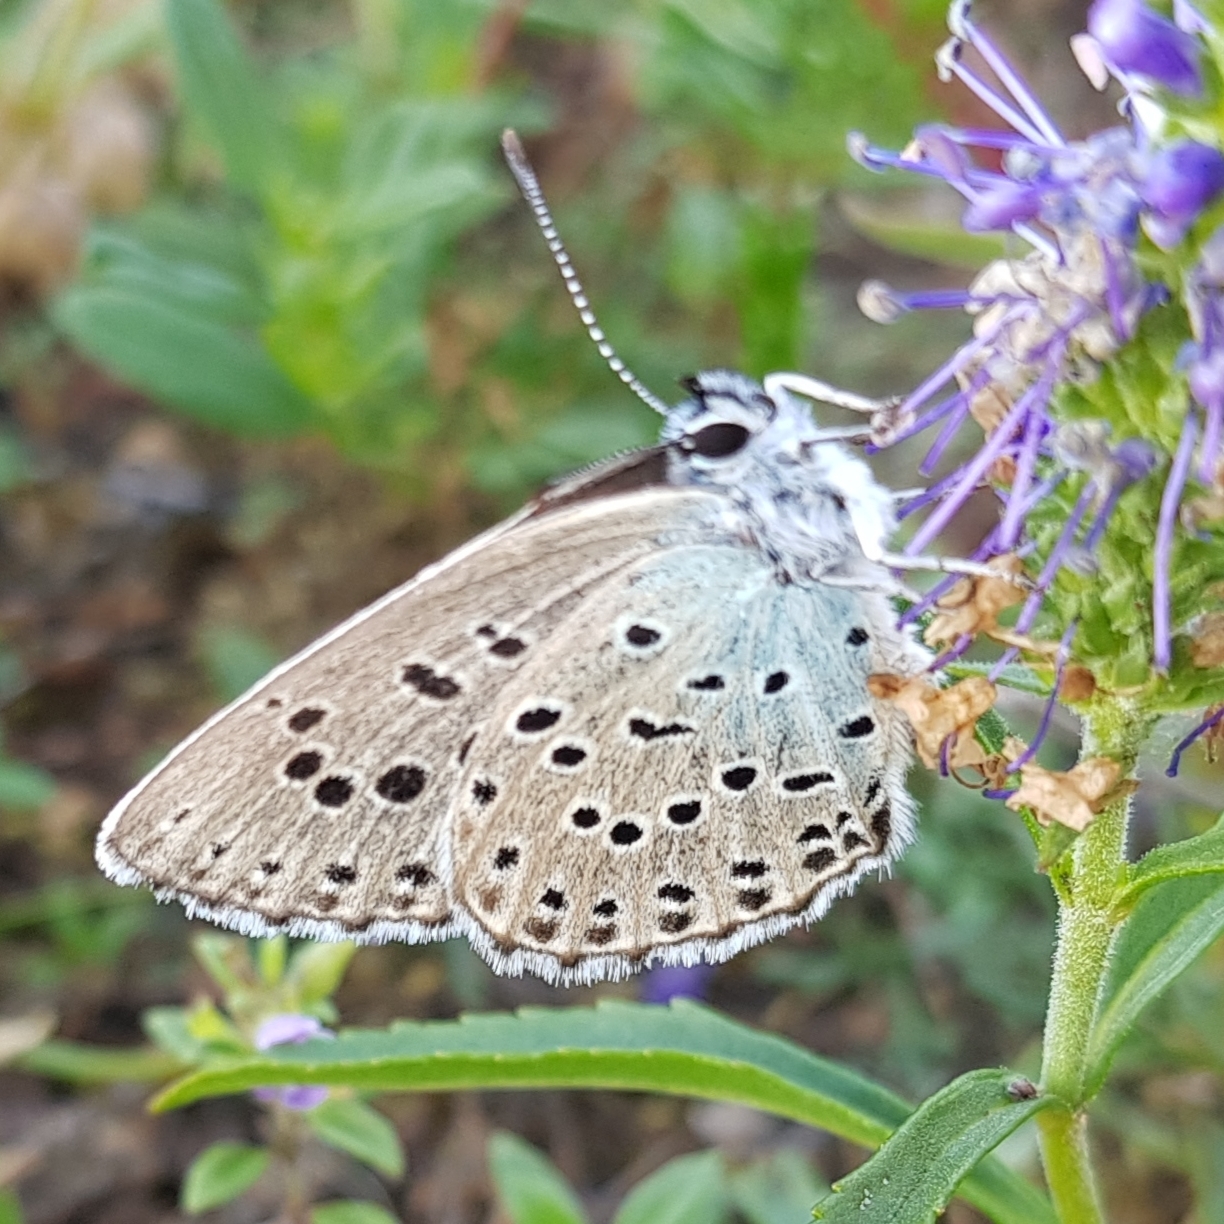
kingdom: Animalia
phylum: Arthropoda
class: Insecta
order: Lepidoptera
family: Lycaenidae
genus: Maculinea
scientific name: Maculinea arion
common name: Large blue
